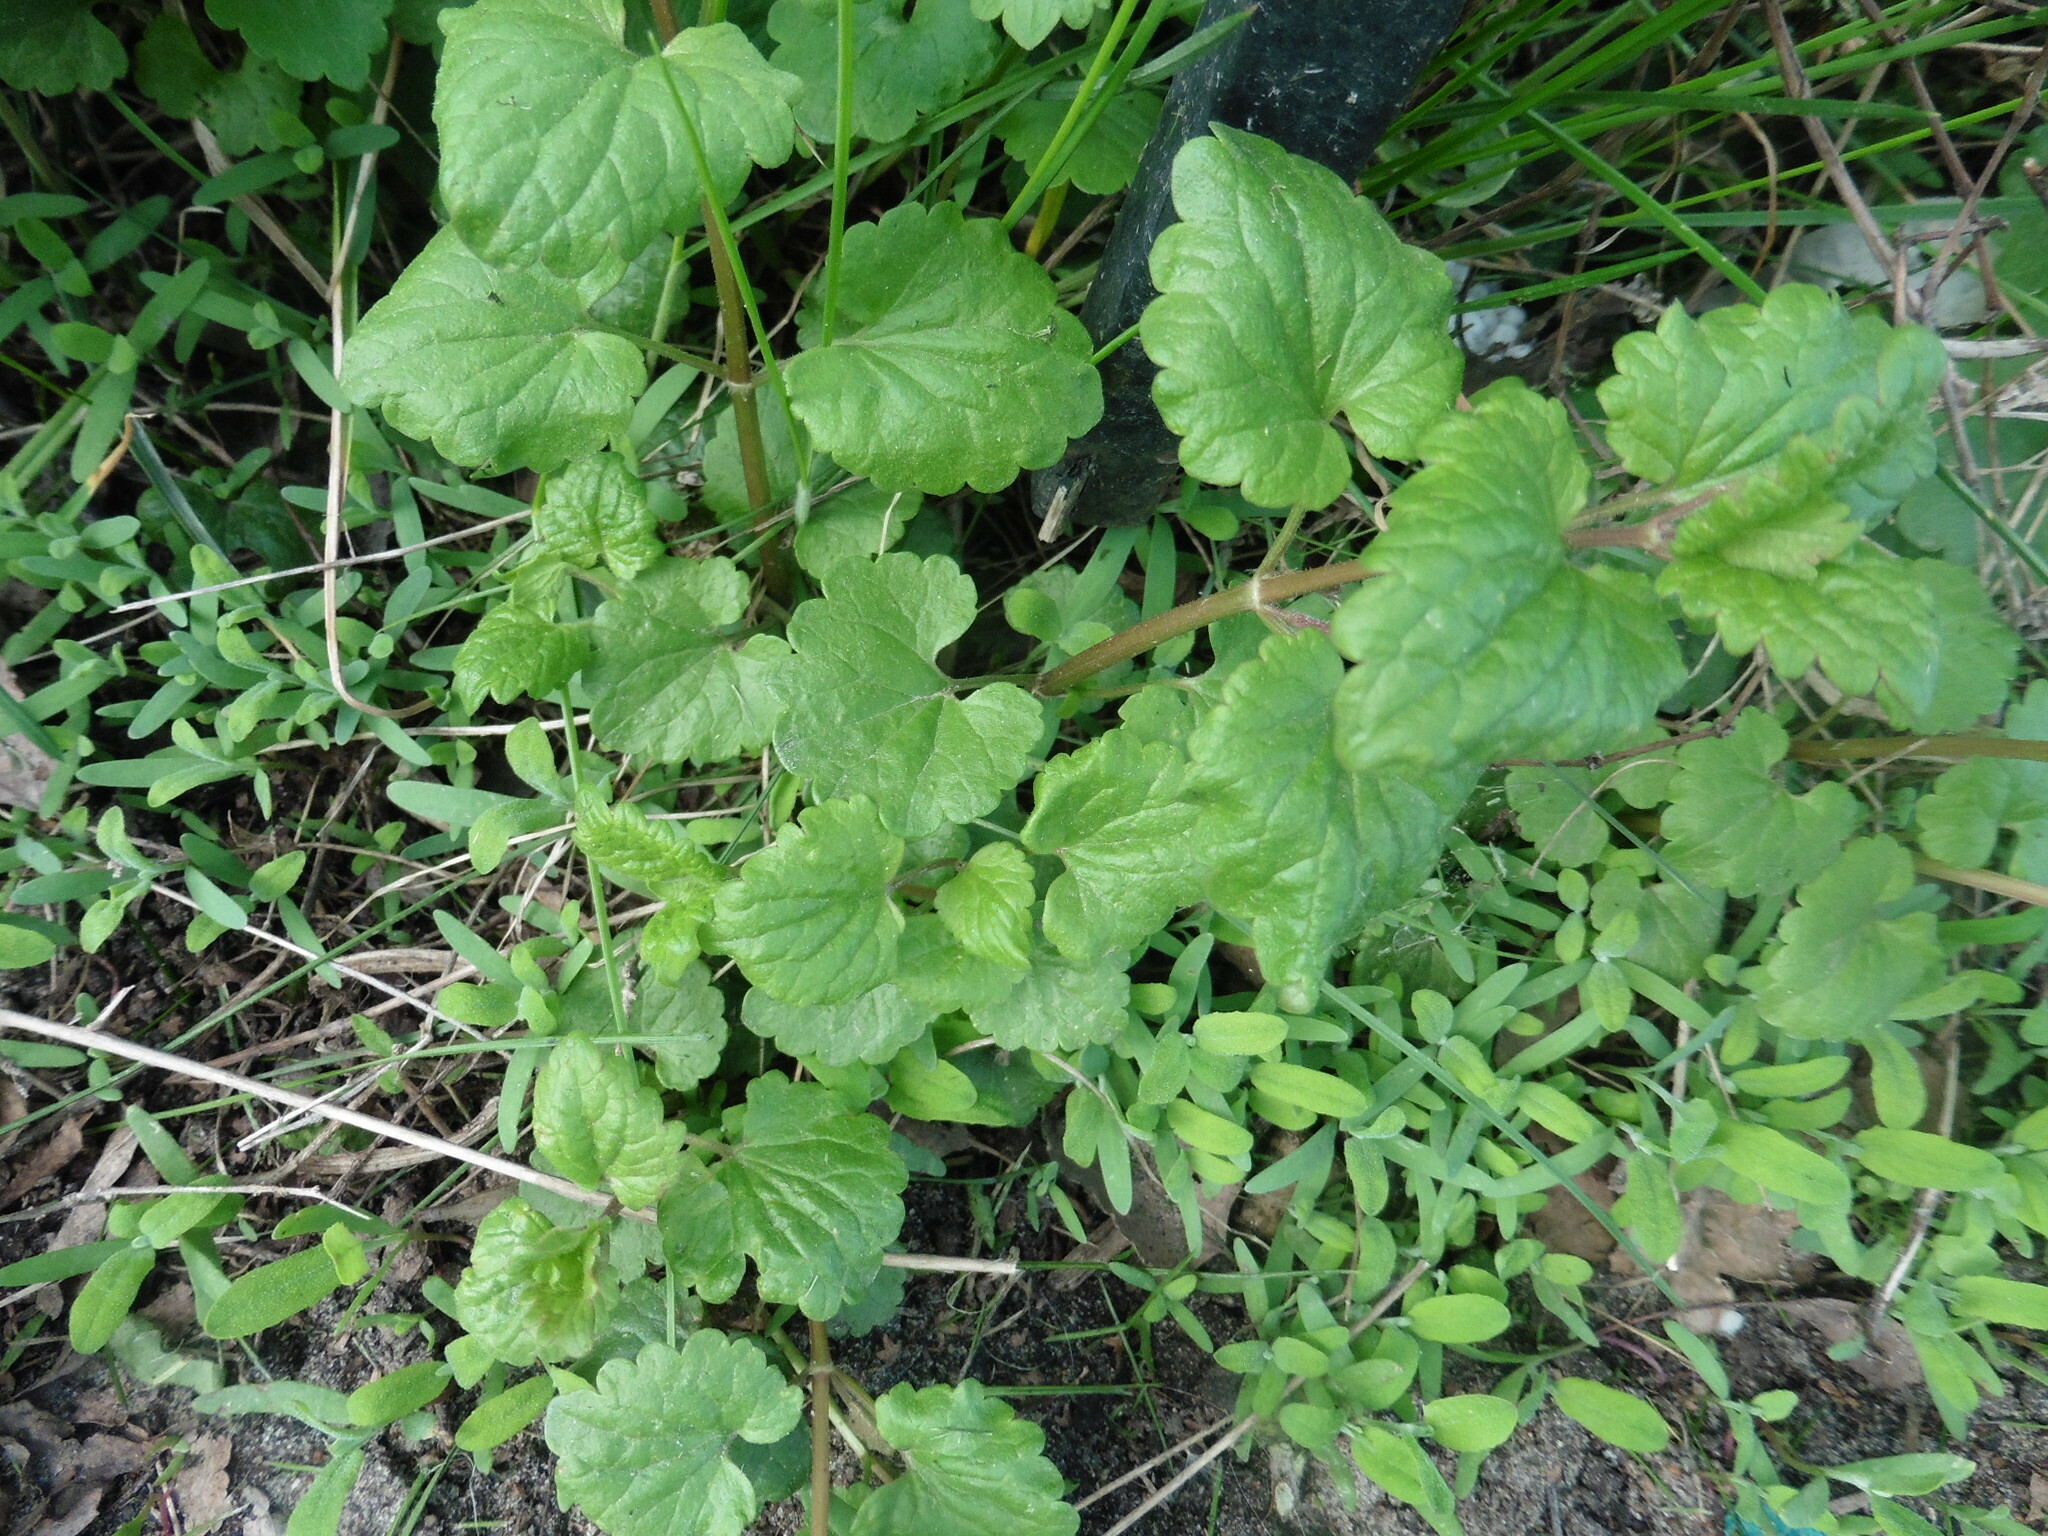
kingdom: Plantae
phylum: Tracheophyta
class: Magnoliopsida
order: Lamiales
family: Lamiaceae
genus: Glechoma
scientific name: Glechoma hederacea
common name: Ground ivy
